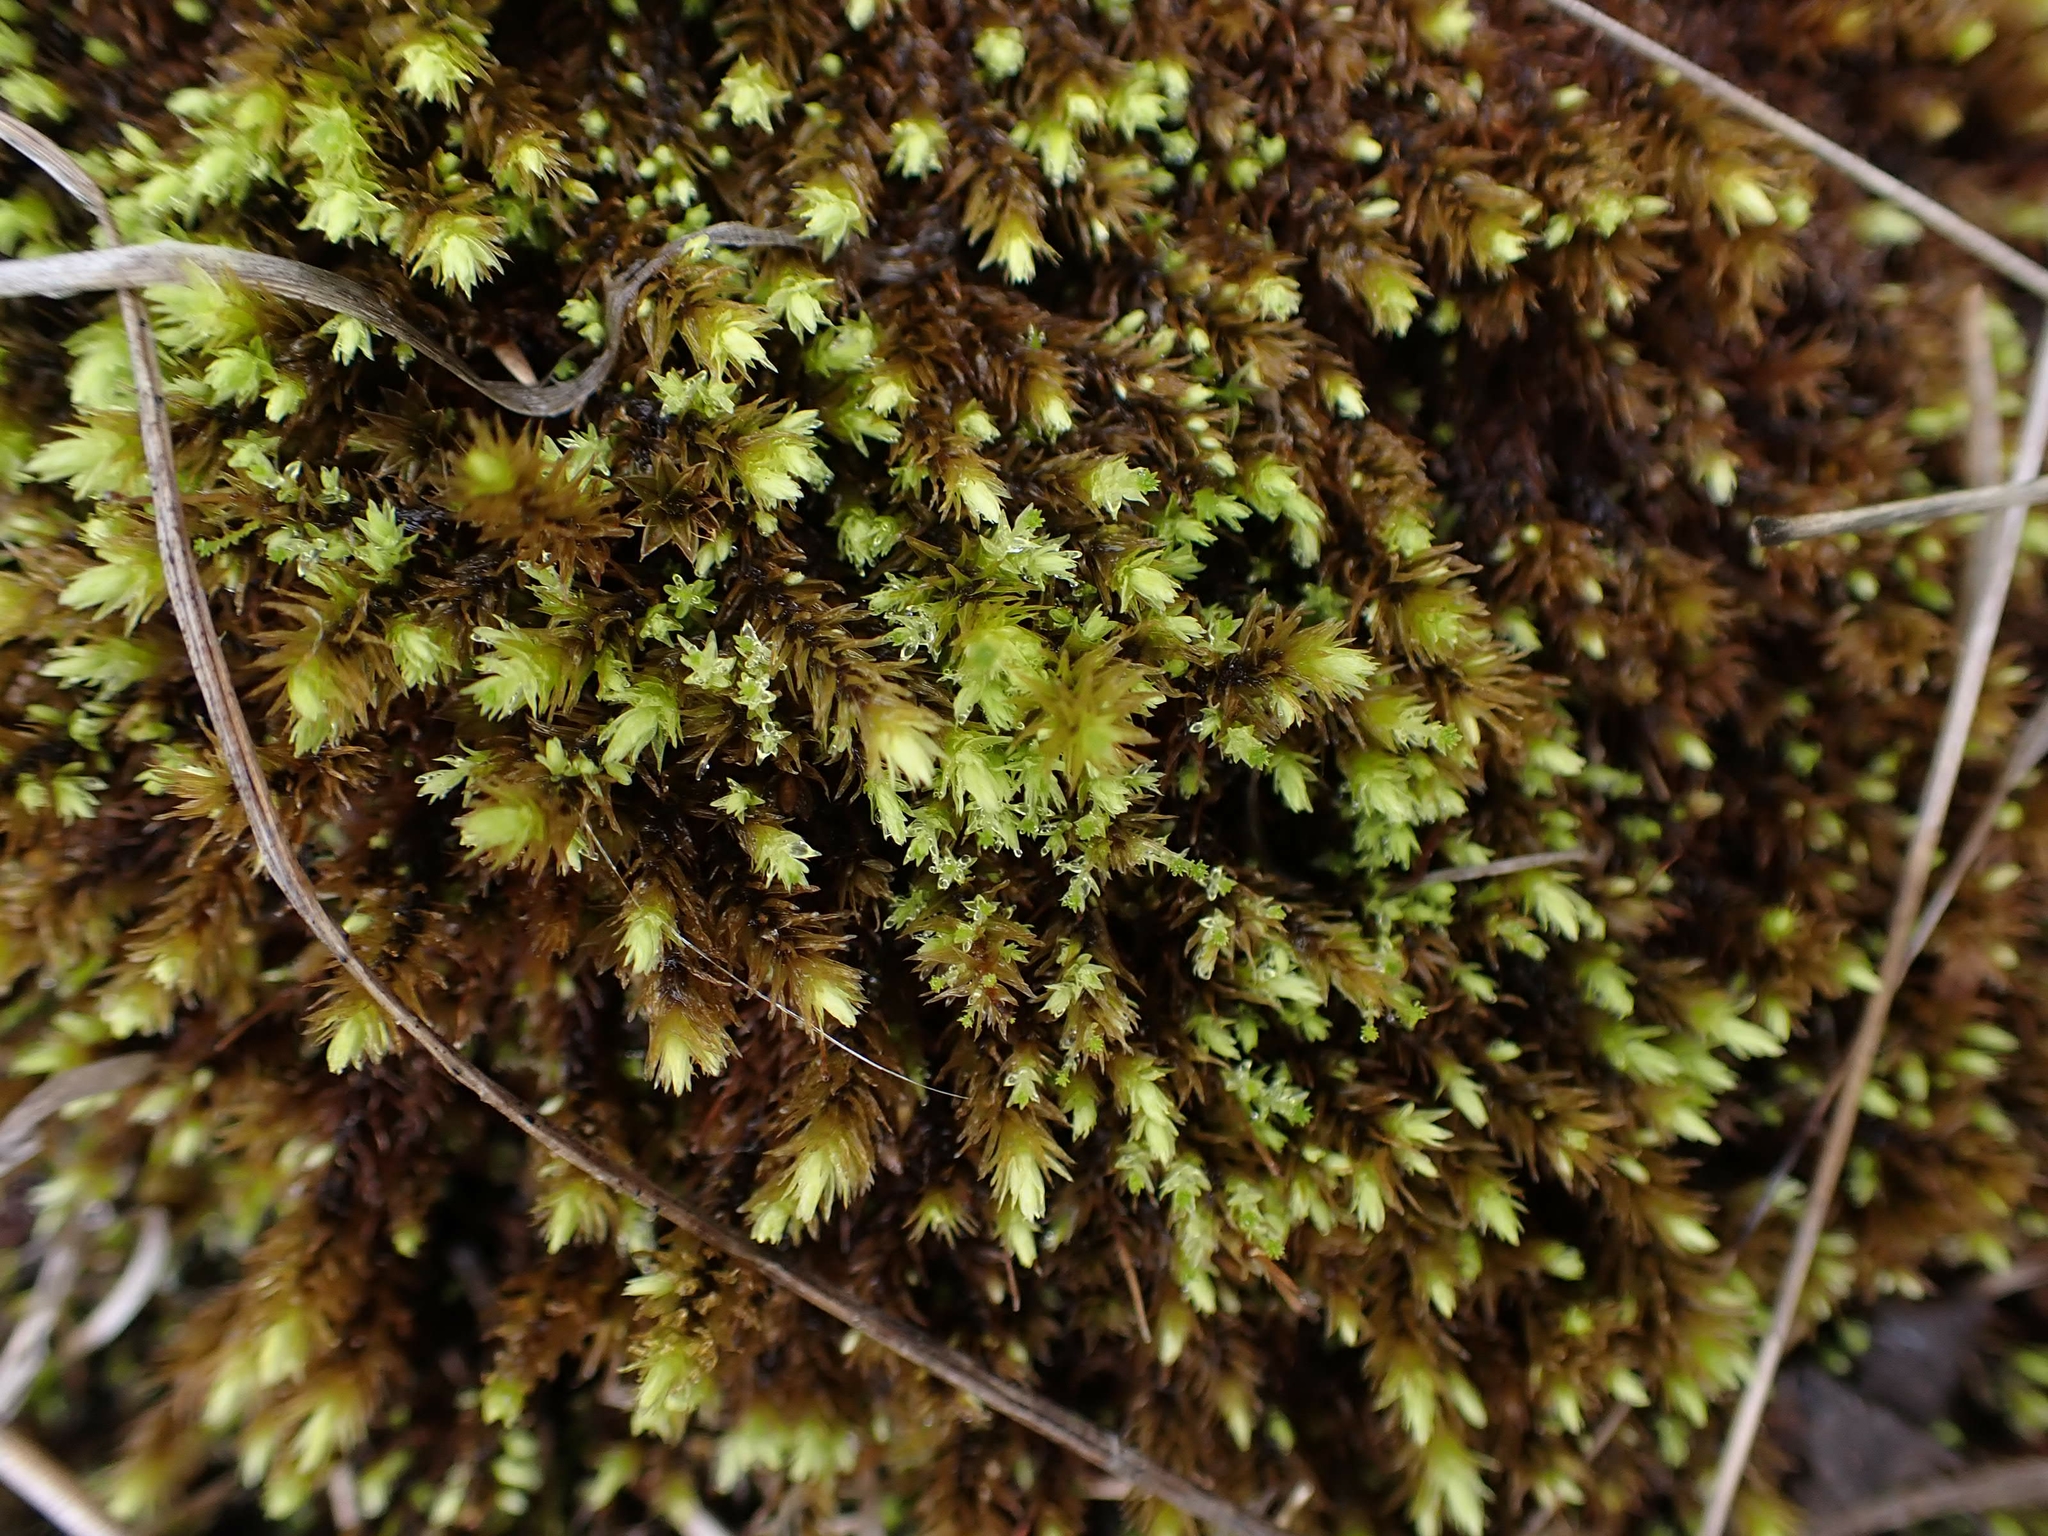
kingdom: Plantae
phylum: Bryophyta
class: Bryopsida
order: Aulacomniales
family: Aulacomniaceae
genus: Aulacomnium
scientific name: Aulacomnium palustre
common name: Bog groove-moss
